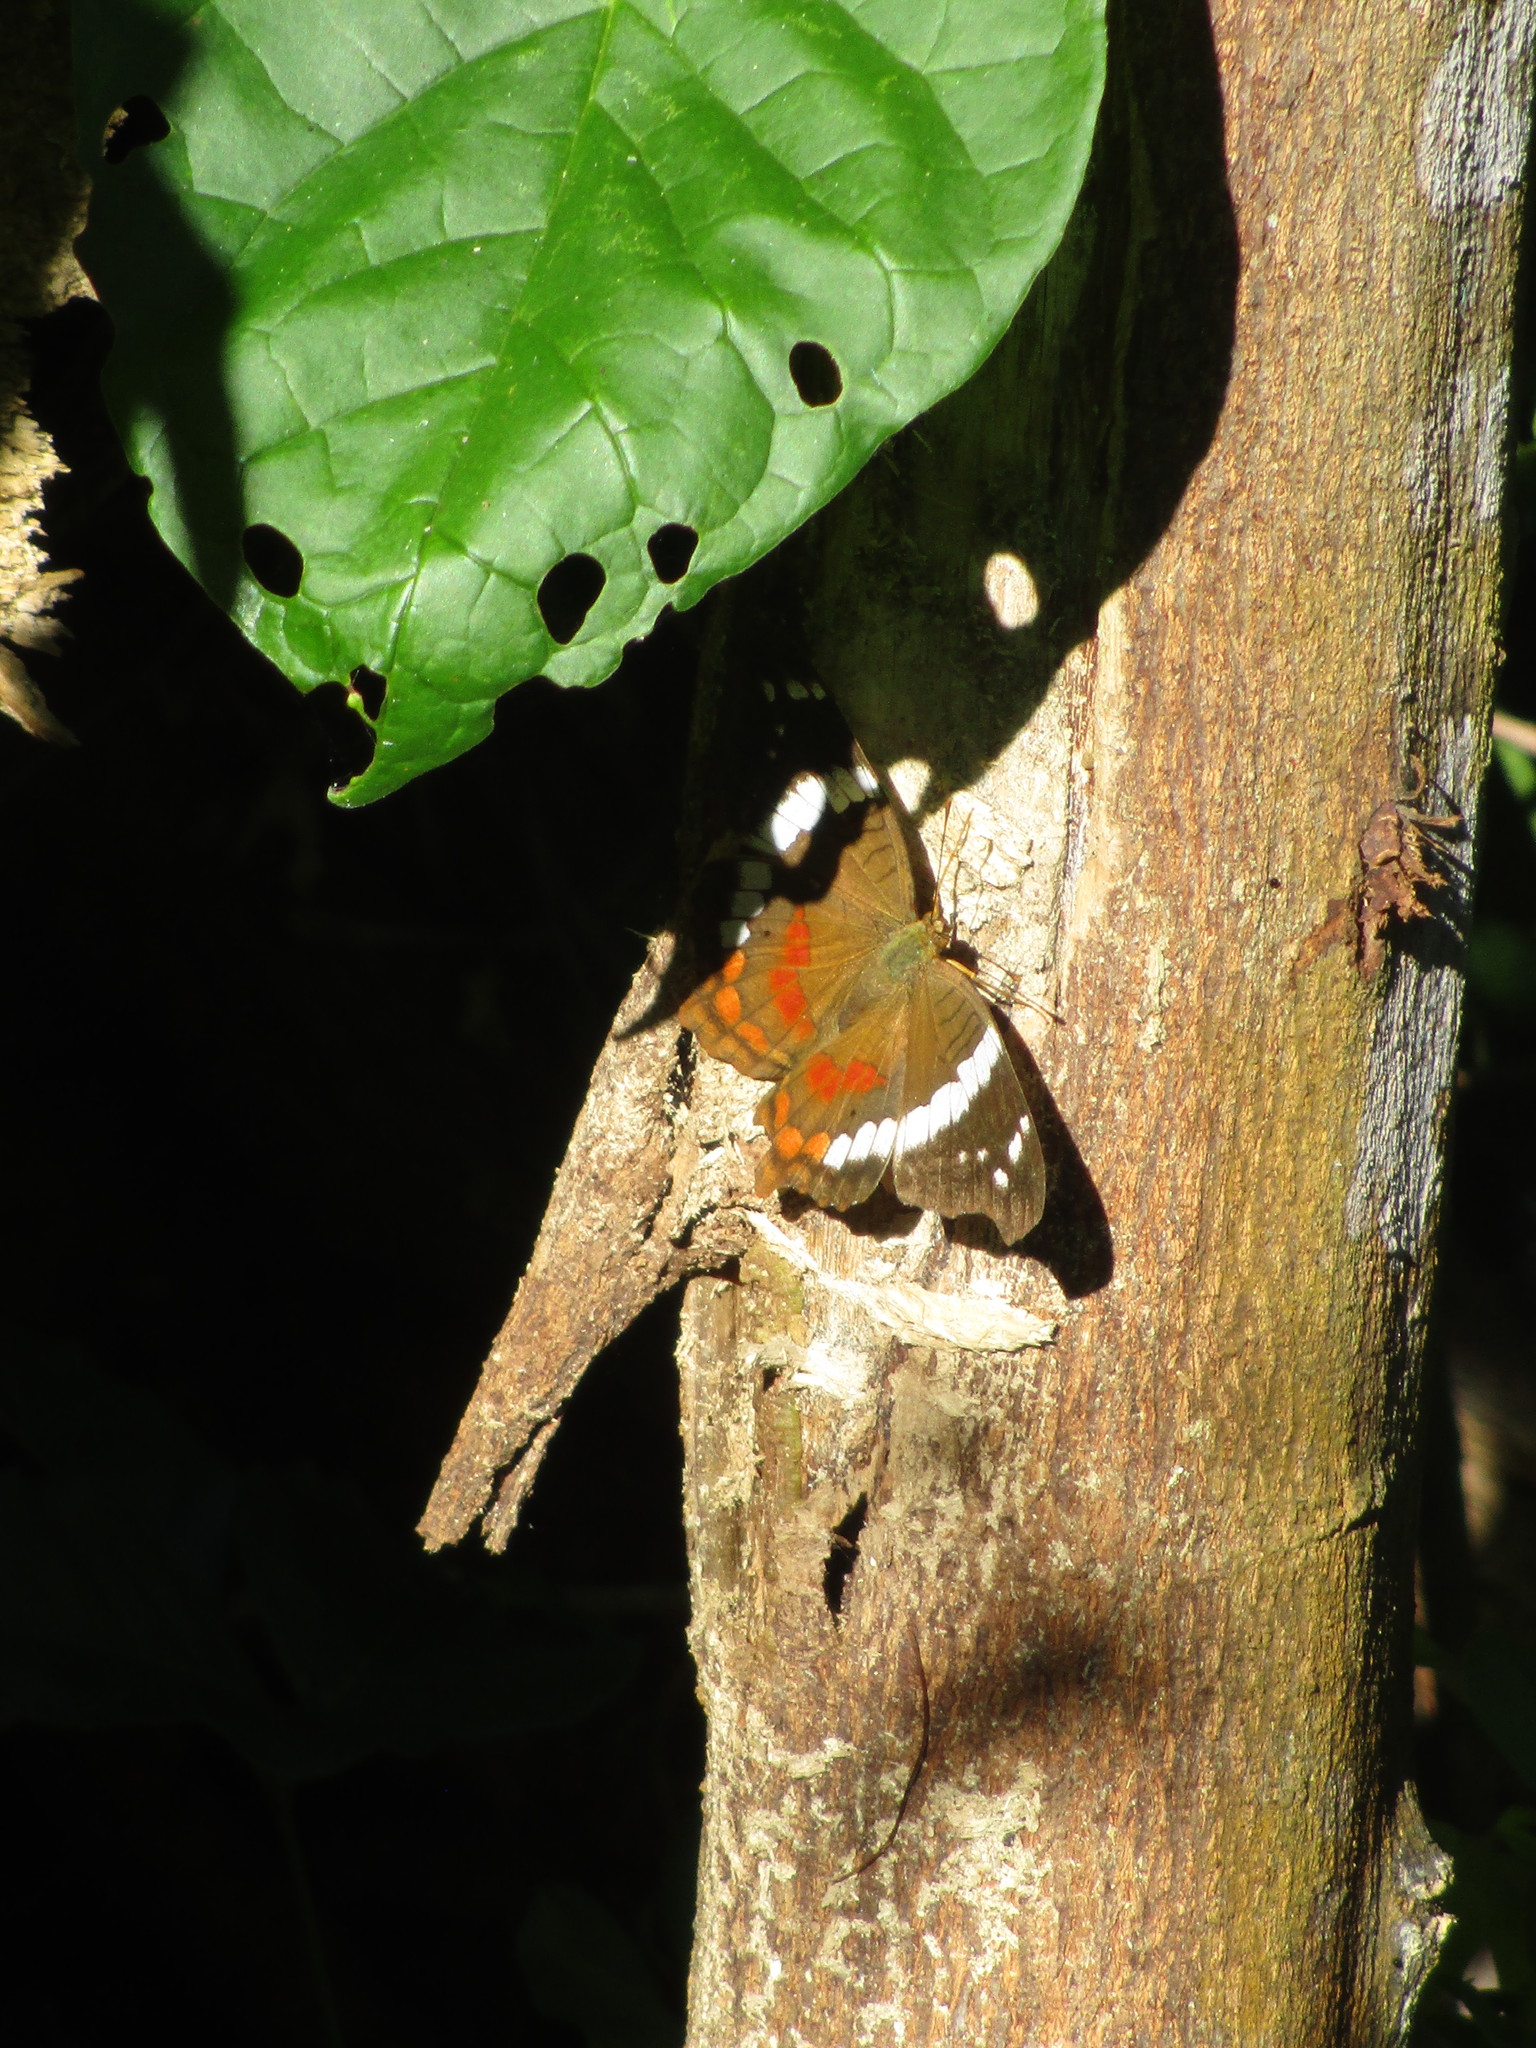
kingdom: Animalia
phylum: Arthropoda
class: Insecta
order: Lepidoptera
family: Nymphalidae
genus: Anartia
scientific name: Anartia fatima
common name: Banded peacock
